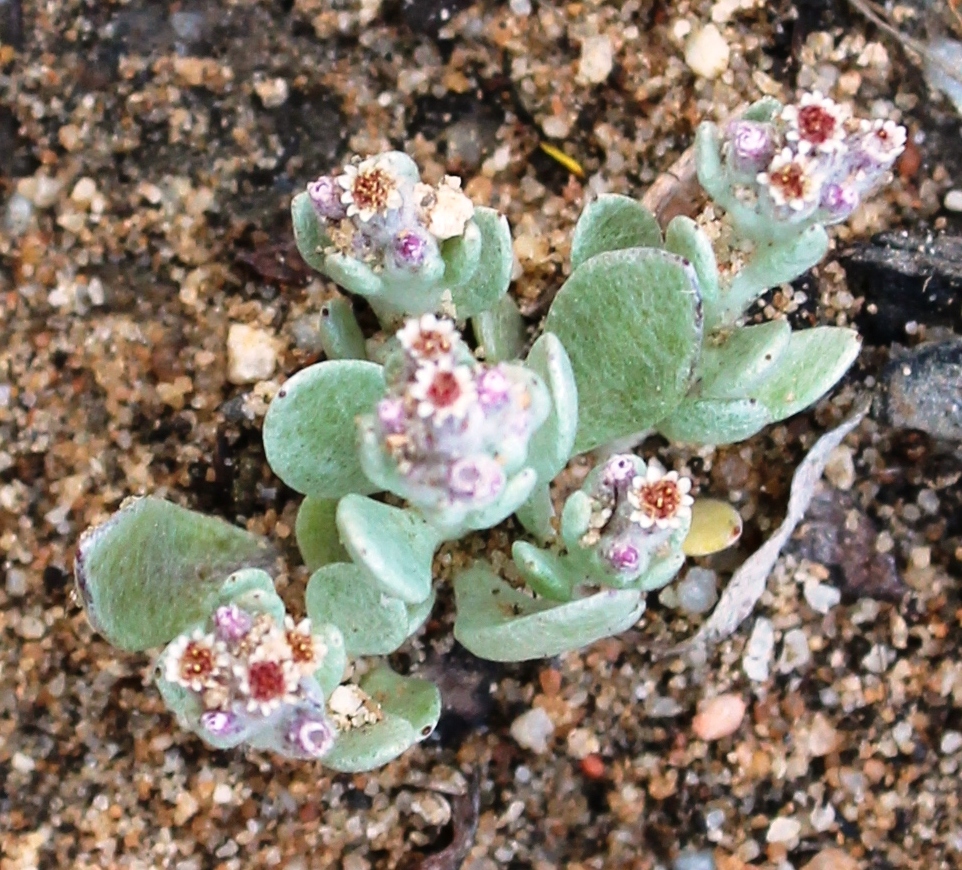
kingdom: Plantae
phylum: Tracheophyta
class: Magnoliopsida
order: Asterales
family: Asteraceae
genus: Vellereophyton
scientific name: Vellereophyton dealbatum
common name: White-cudweed
